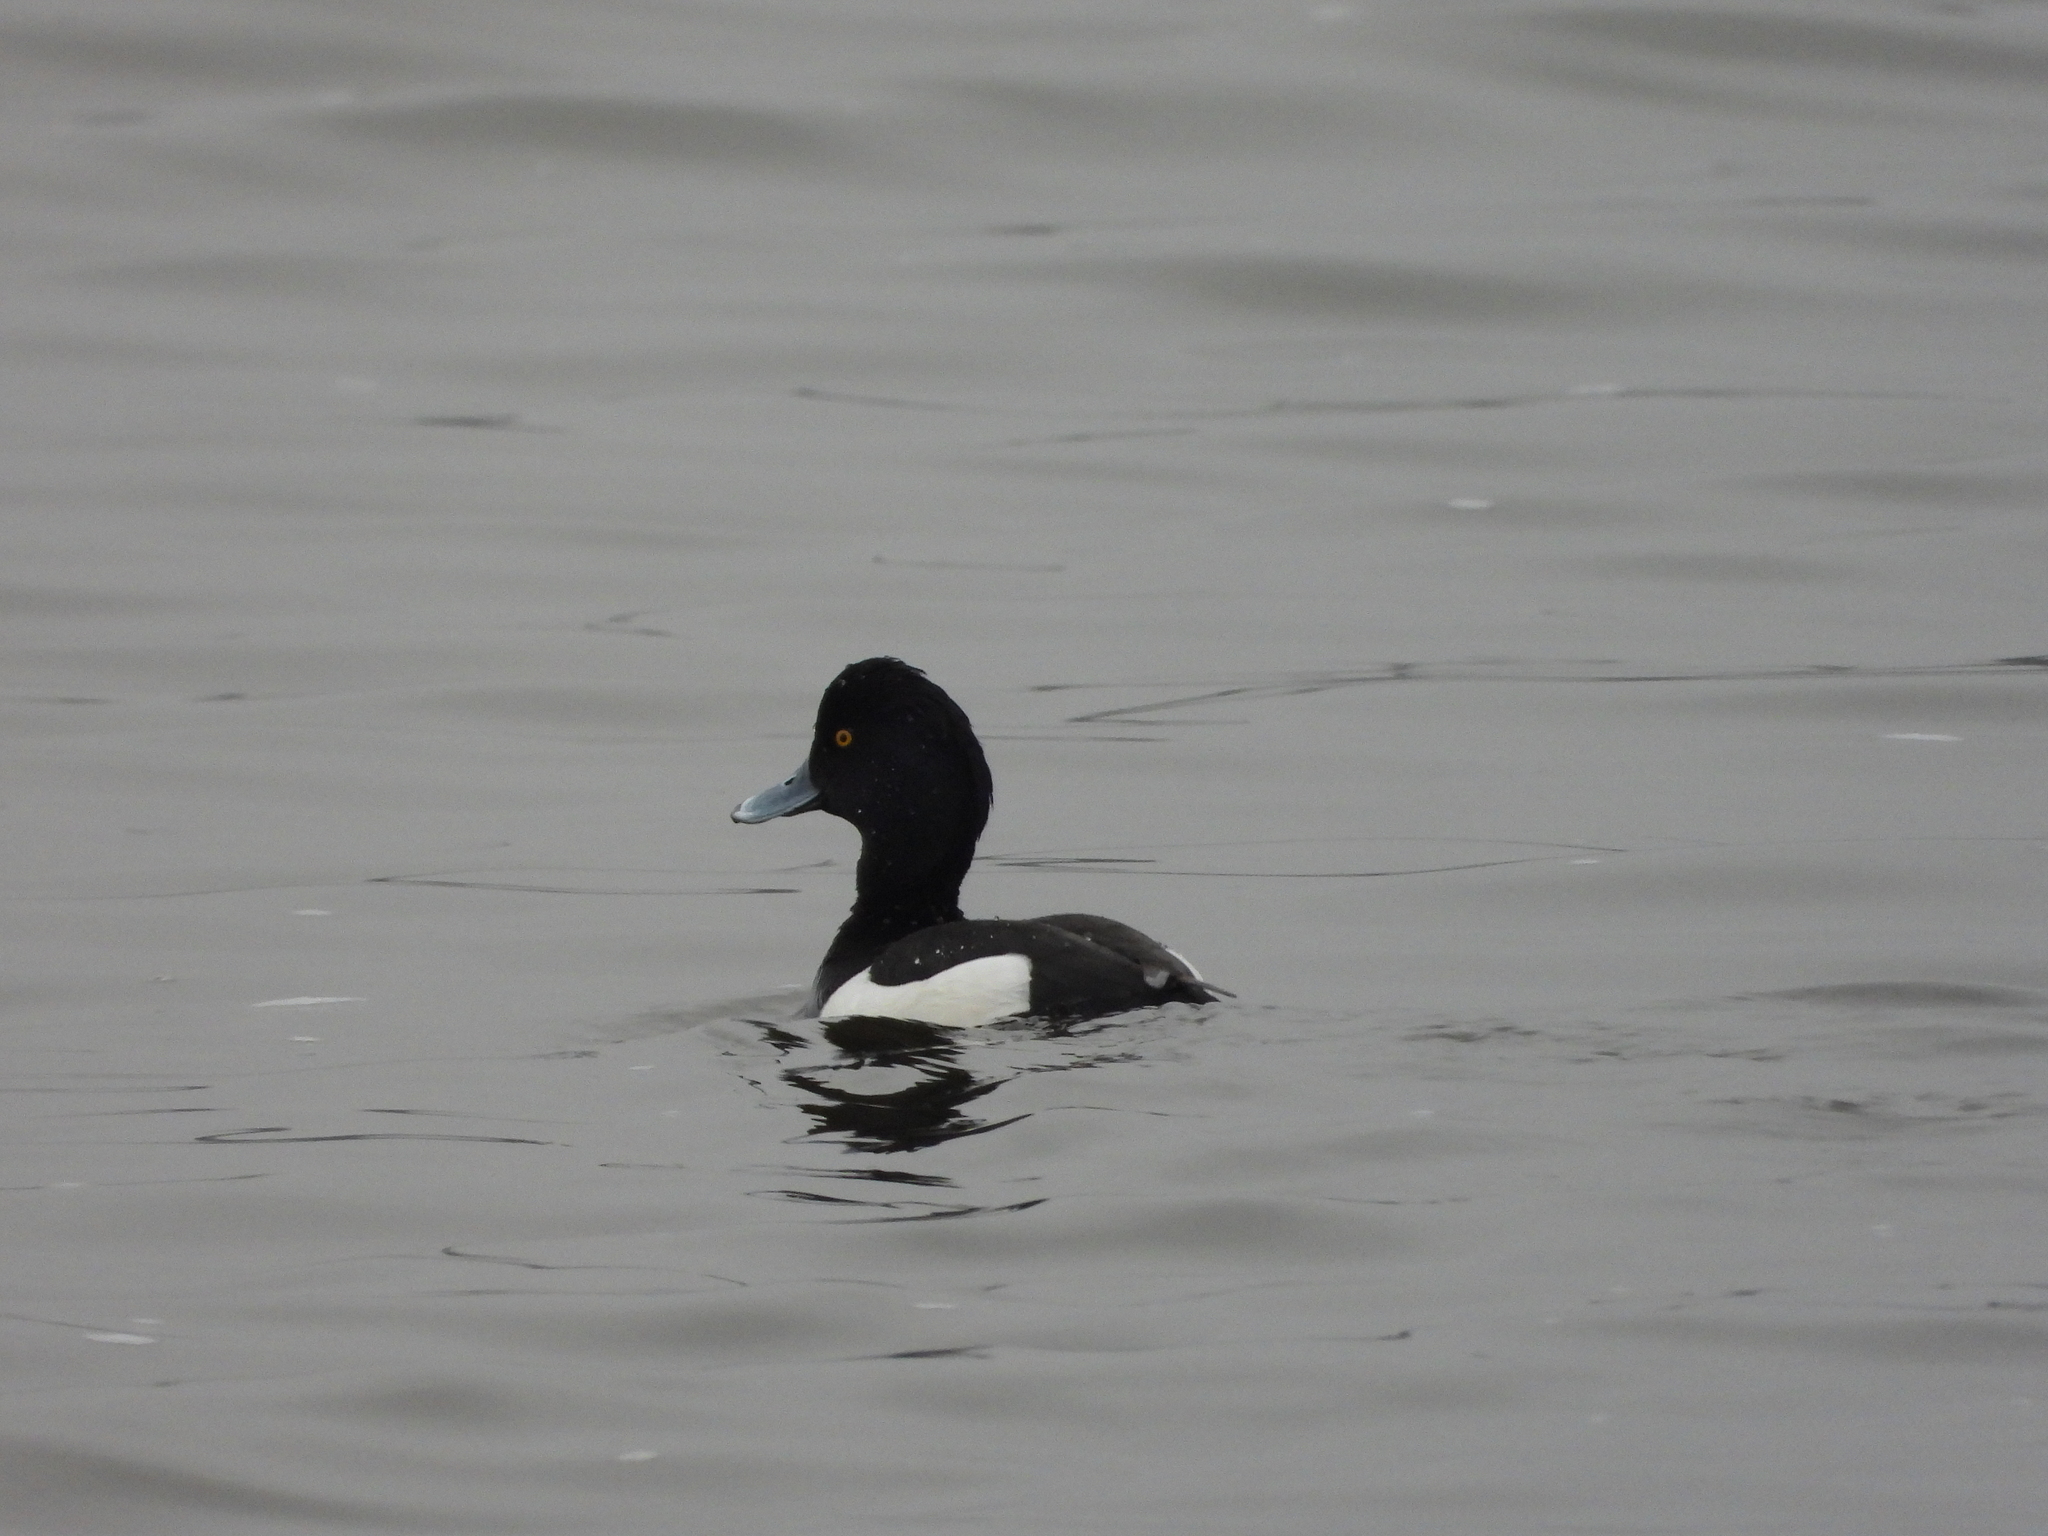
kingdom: Animalia
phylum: Chordata
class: Aves
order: Anseriformes
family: Anatidae
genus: Aythya
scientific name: Aythya fuligula
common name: Tufted duck
